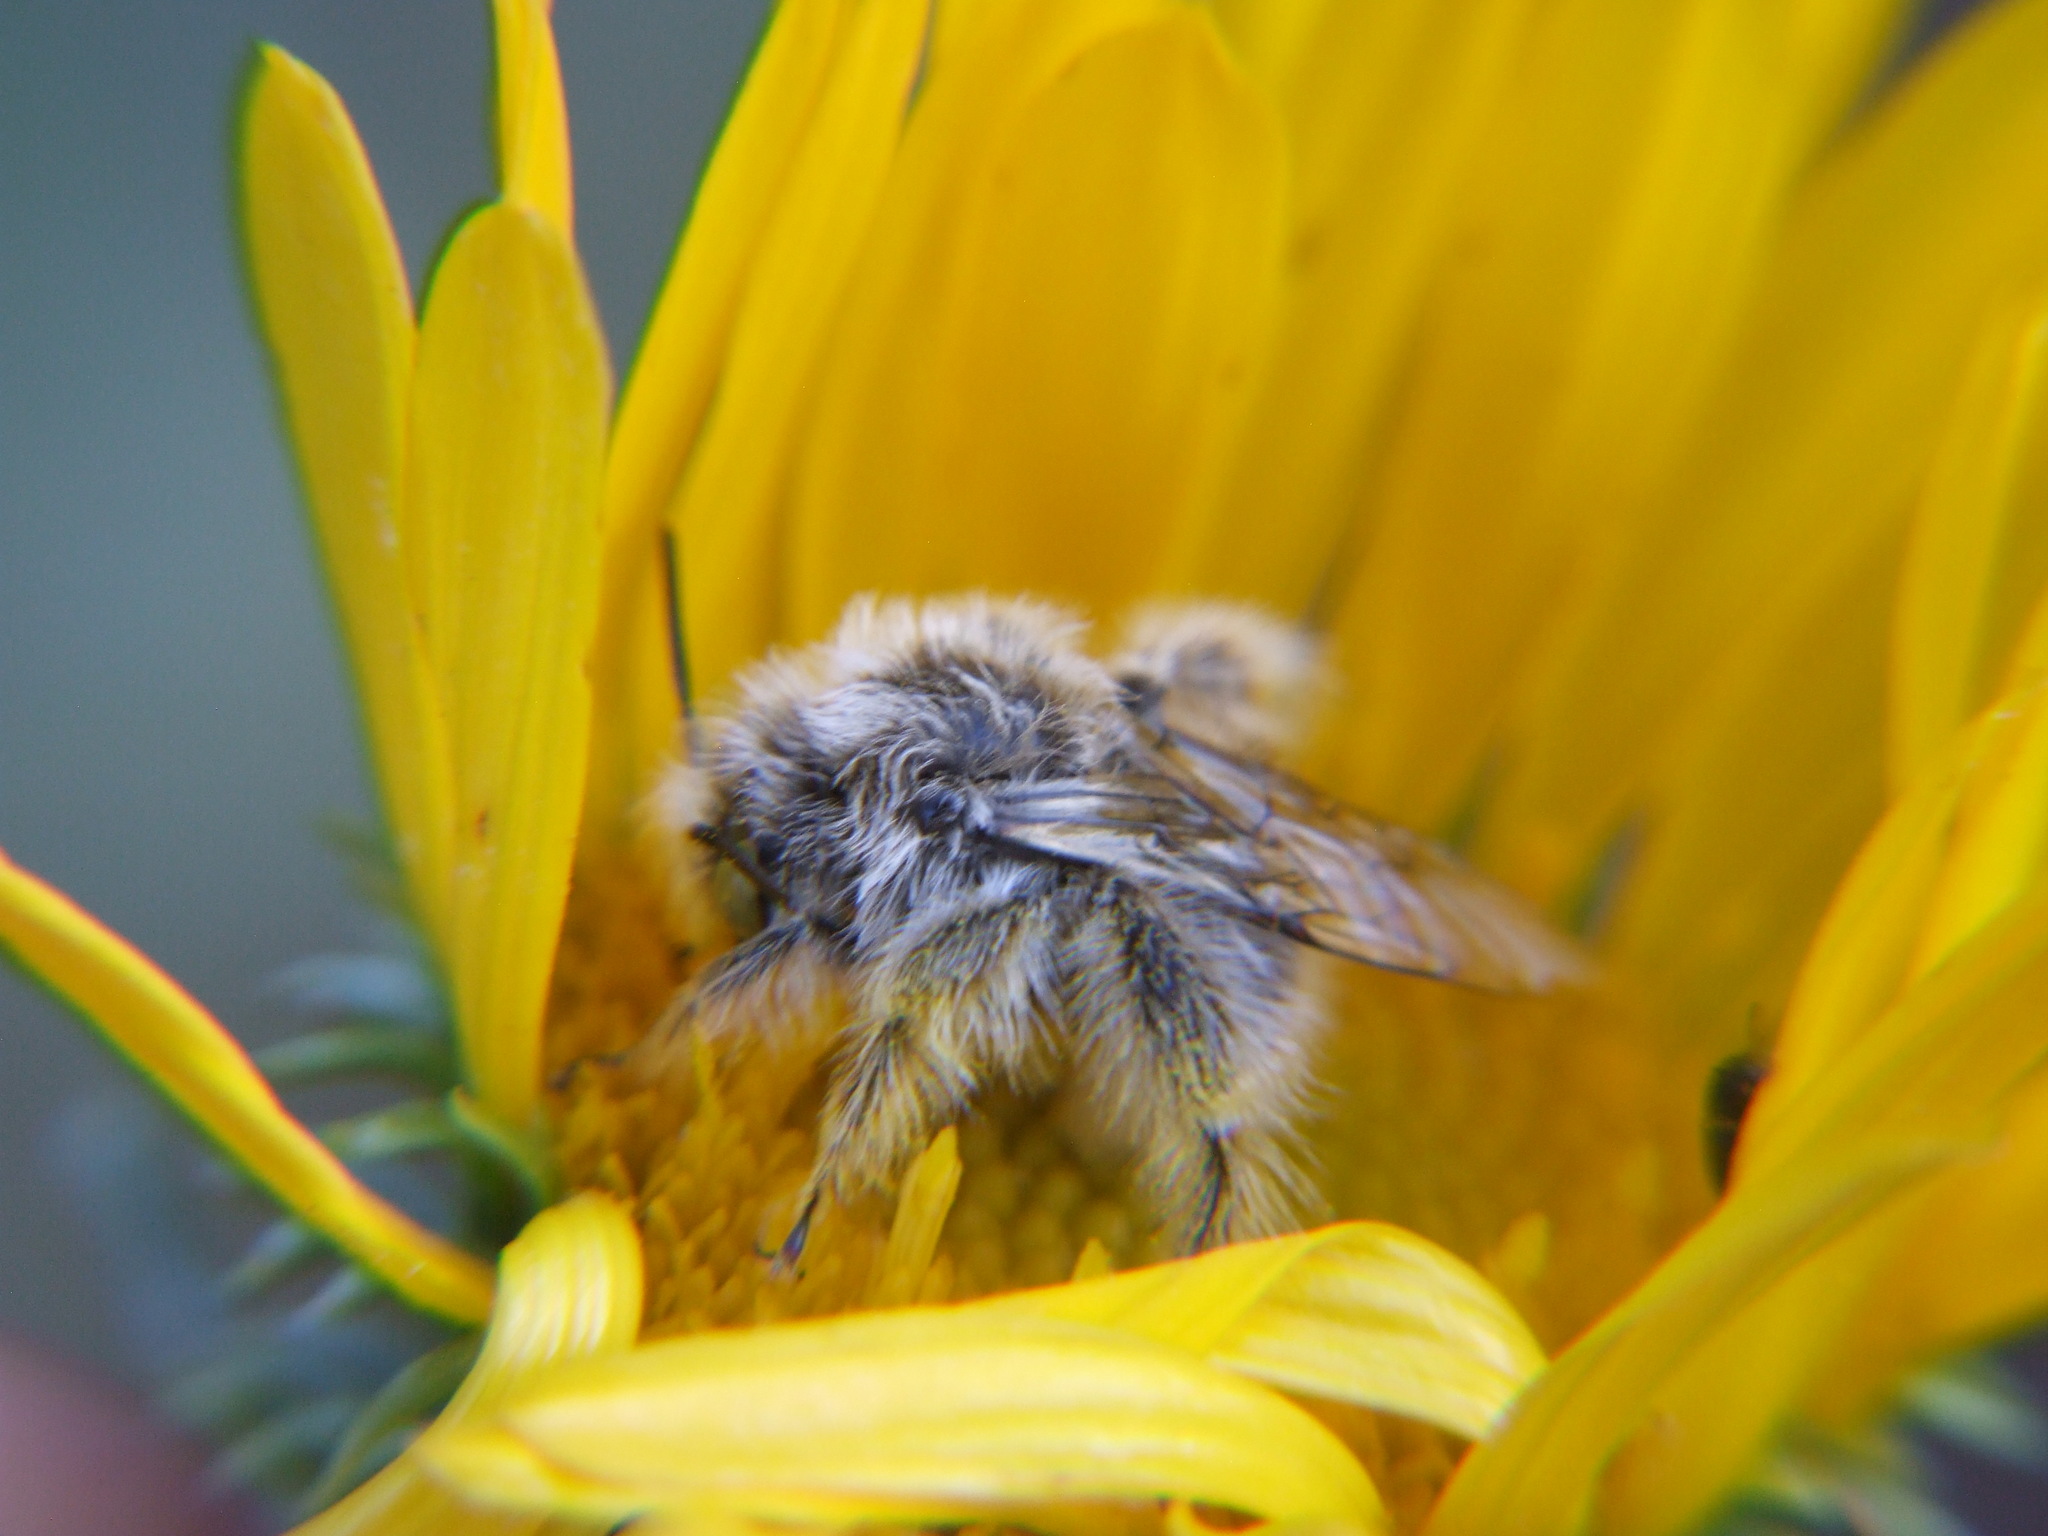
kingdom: Animalia
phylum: Arthropoda
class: Insecta
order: Hymenoptera
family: Apidae
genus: Diadasia
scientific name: Diadasia baeri
